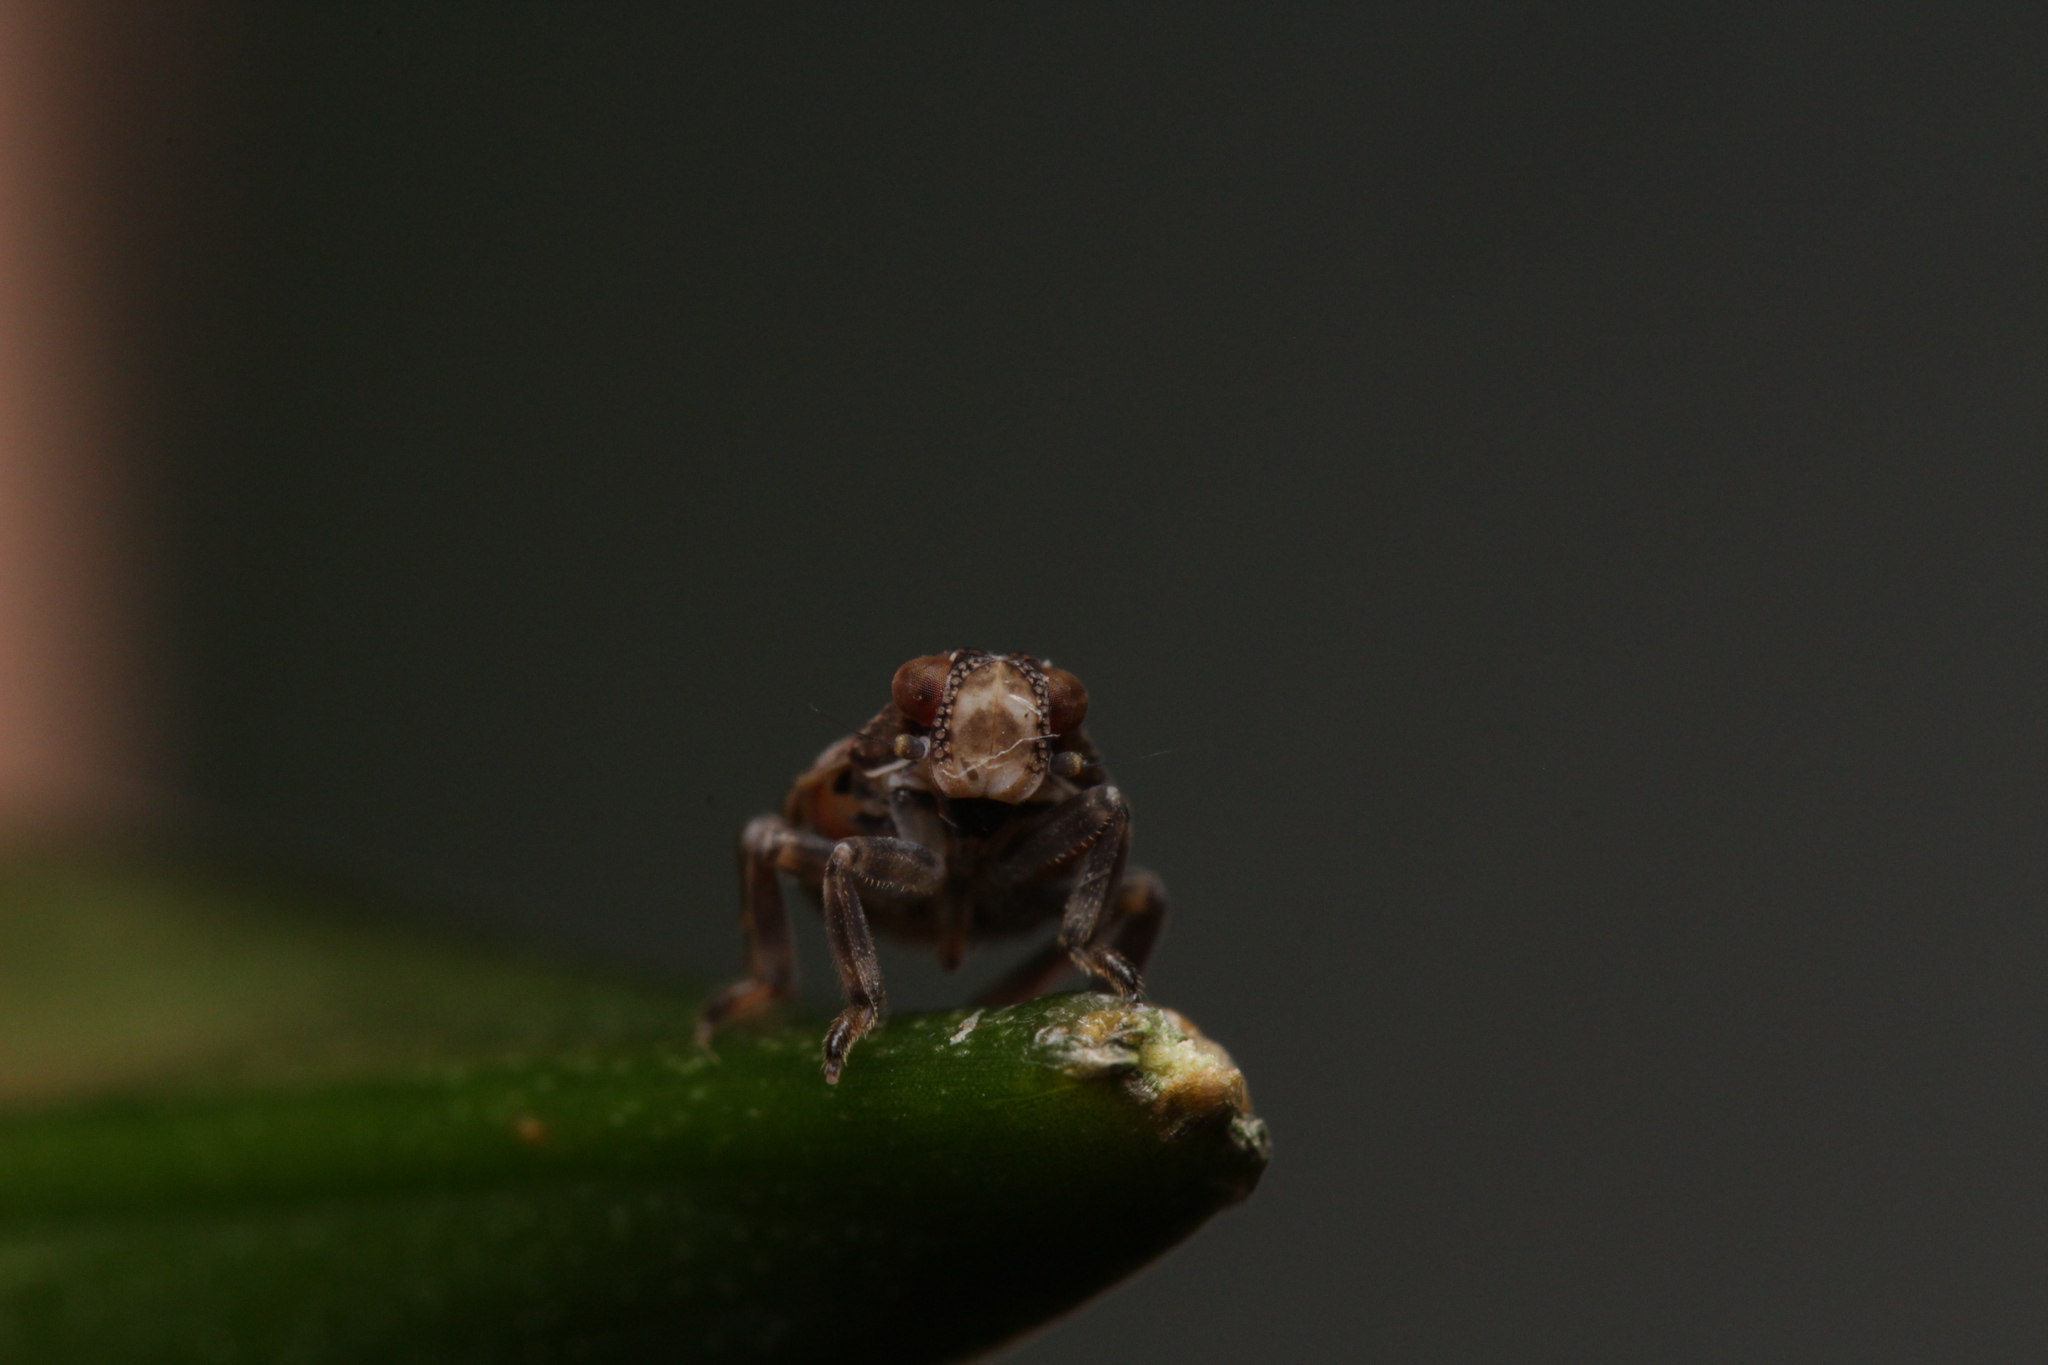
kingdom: Animalia
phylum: Arthropoda
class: Insecta
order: Hemiptera
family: Issidae
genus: Issus
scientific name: Issus coleoptratus
